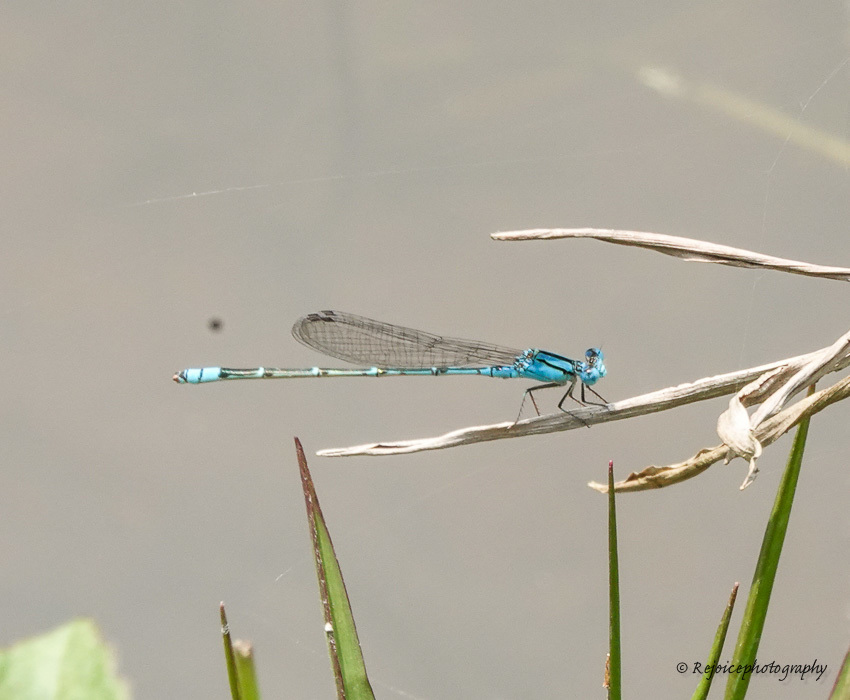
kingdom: Animalia
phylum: Arthropoda
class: Insecta
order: Odonata
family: Coenagrionidae
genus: Pseudagrion
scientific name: Pseudagrion microcephalum
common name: Blue riverdamsel
